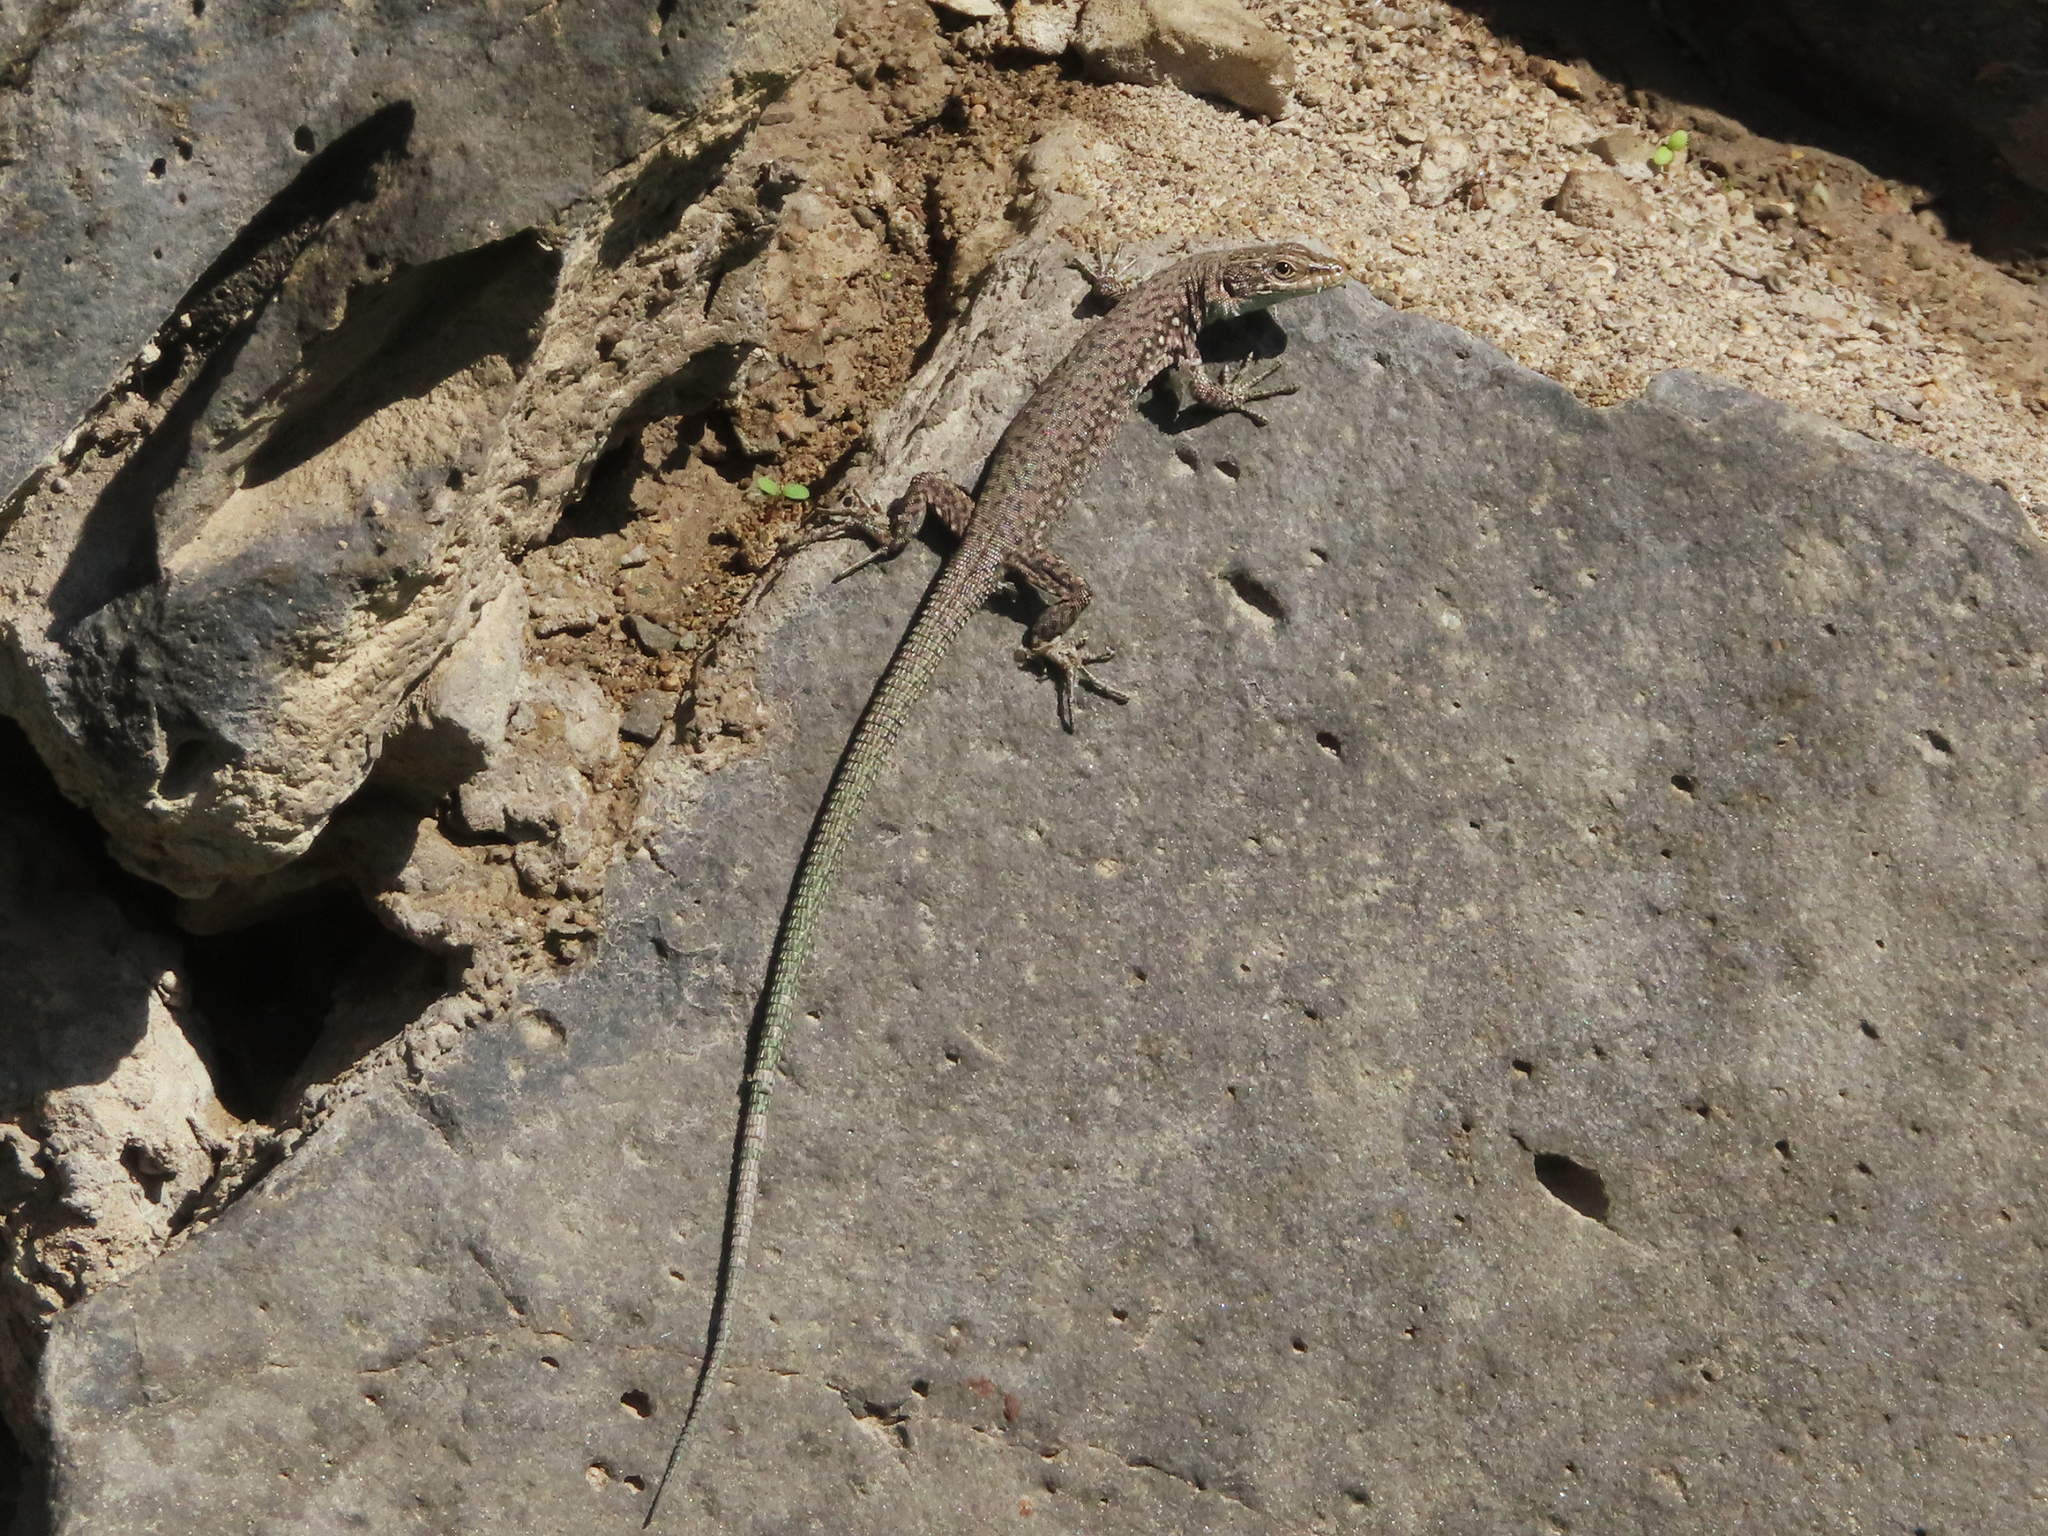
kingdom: Animalia
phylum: Chordata
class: Squamata
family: Lacertidae
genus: Darevskia
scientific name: Darevskia
